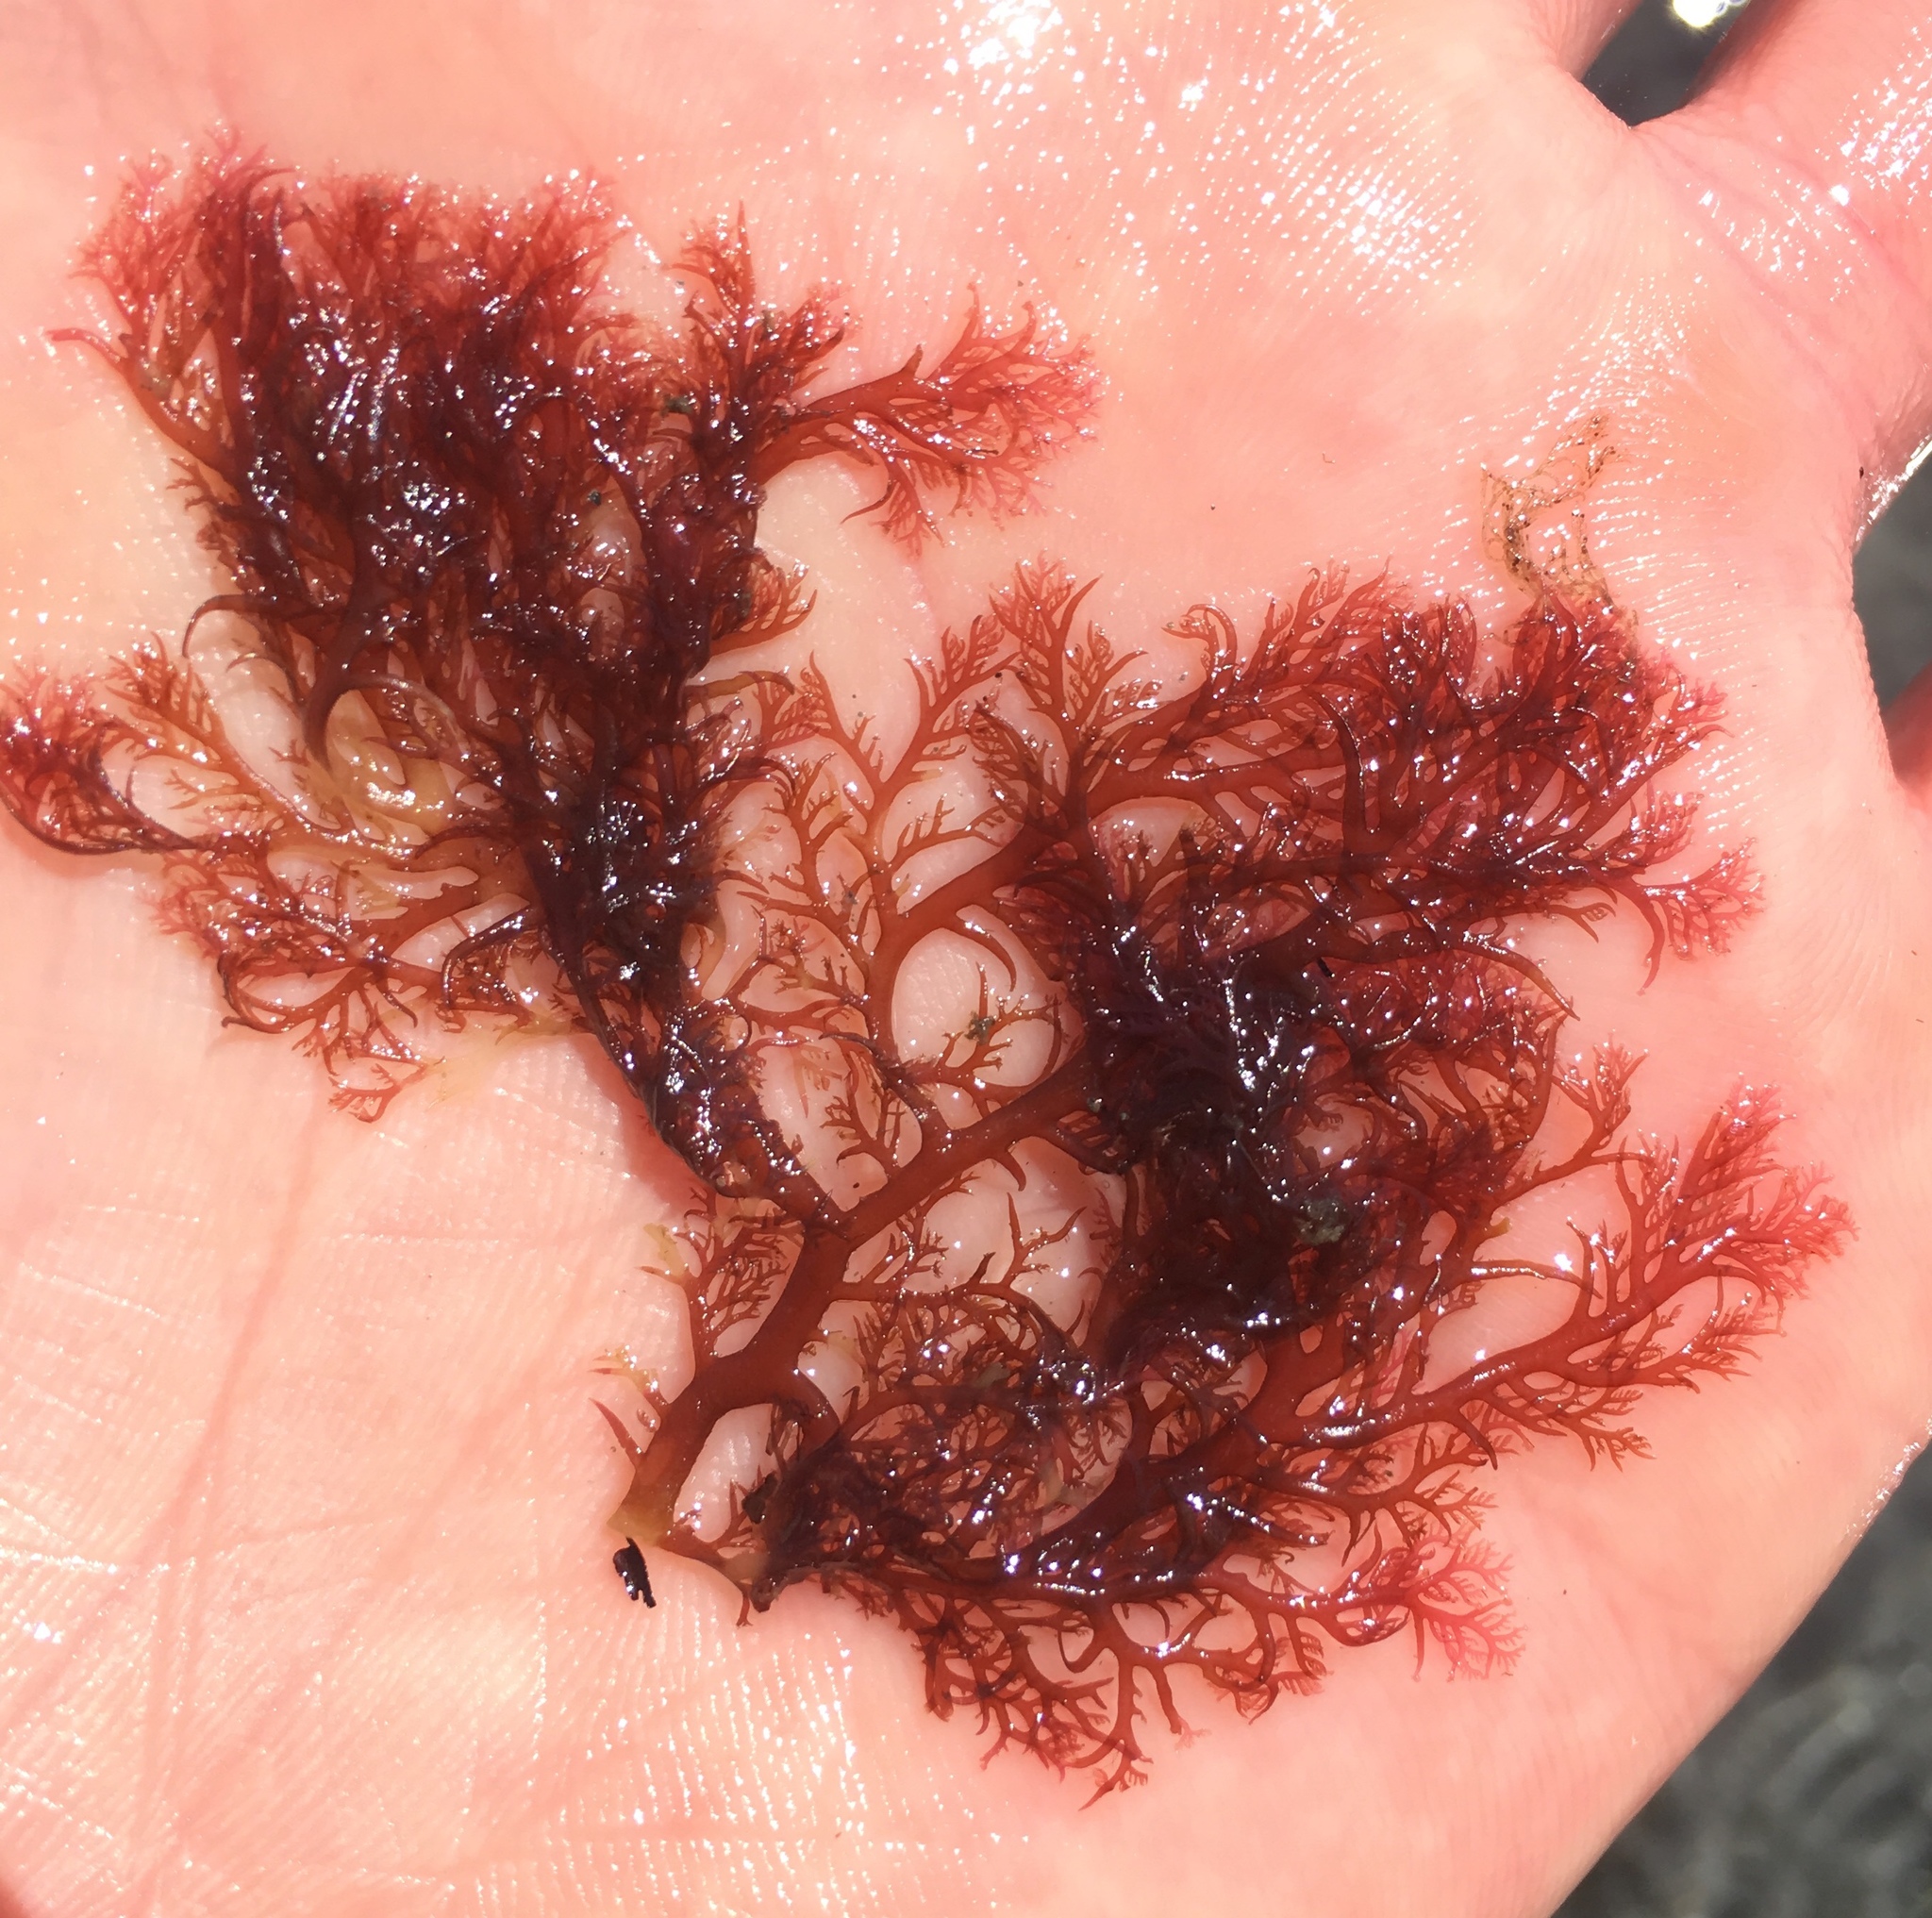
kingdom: Plantae
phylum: Rhodophyta
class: Florideophyceae
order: Plocamiales
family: Plocamiaceae
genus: Plocamium
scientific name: Plocamium cartilagineum
